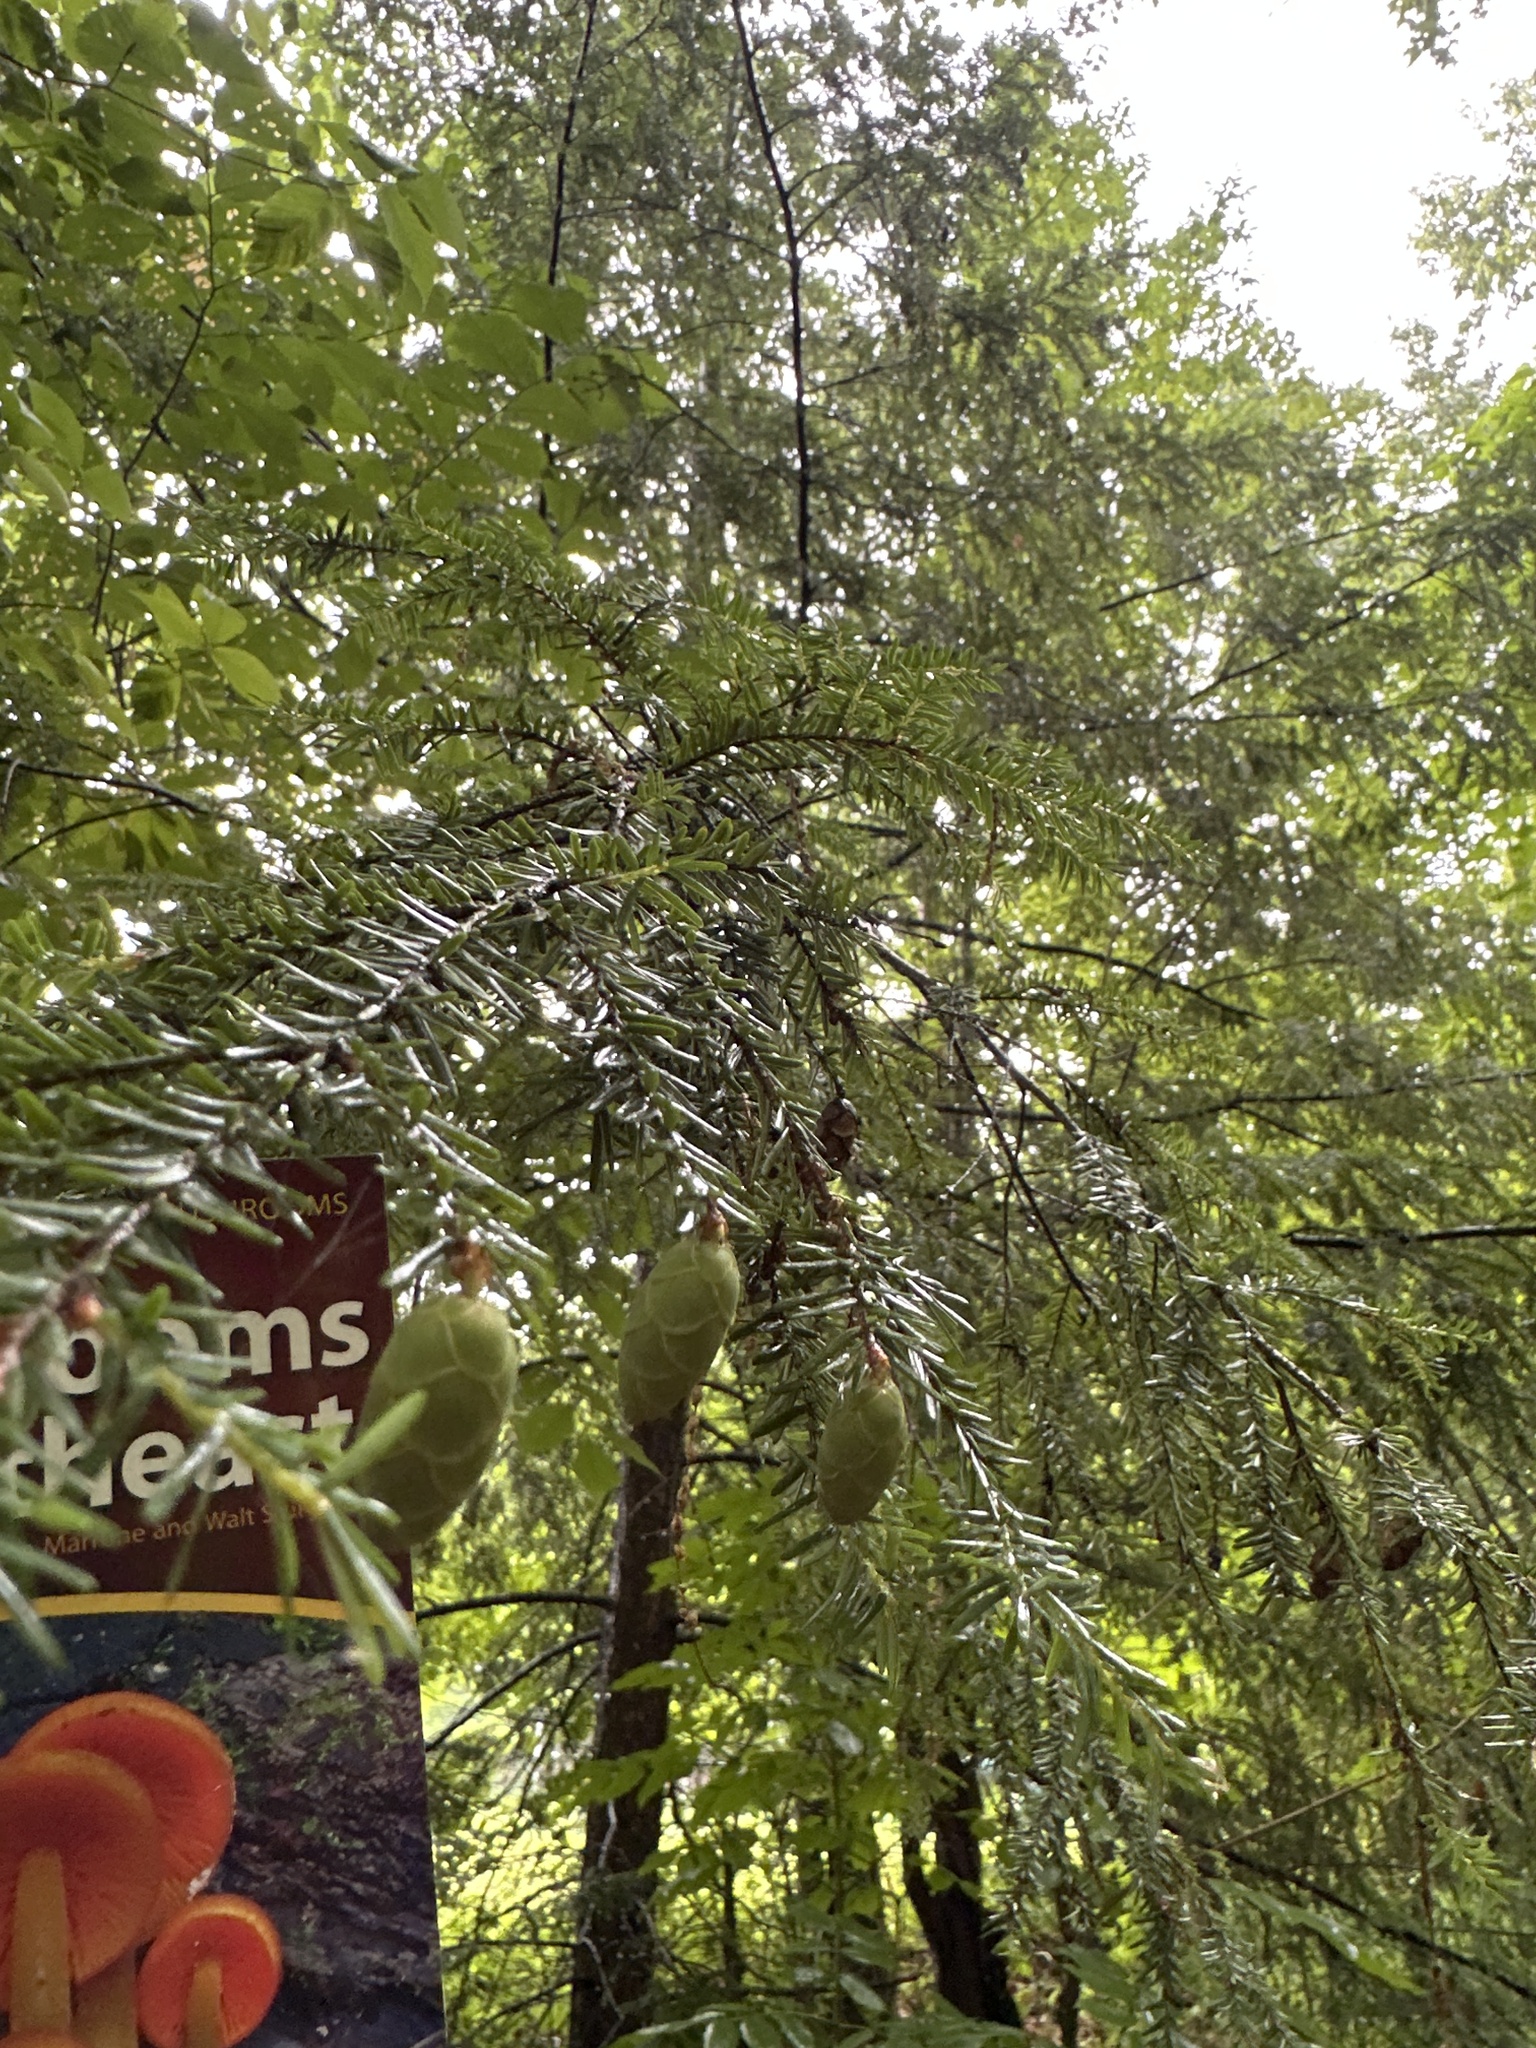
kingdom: Plantae
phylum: Tracheophyta
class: Pinopsida
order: Pinales
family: Pinaceae
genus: Tsuga
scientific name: Tsuga canadensis
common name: Eastern hemlock
